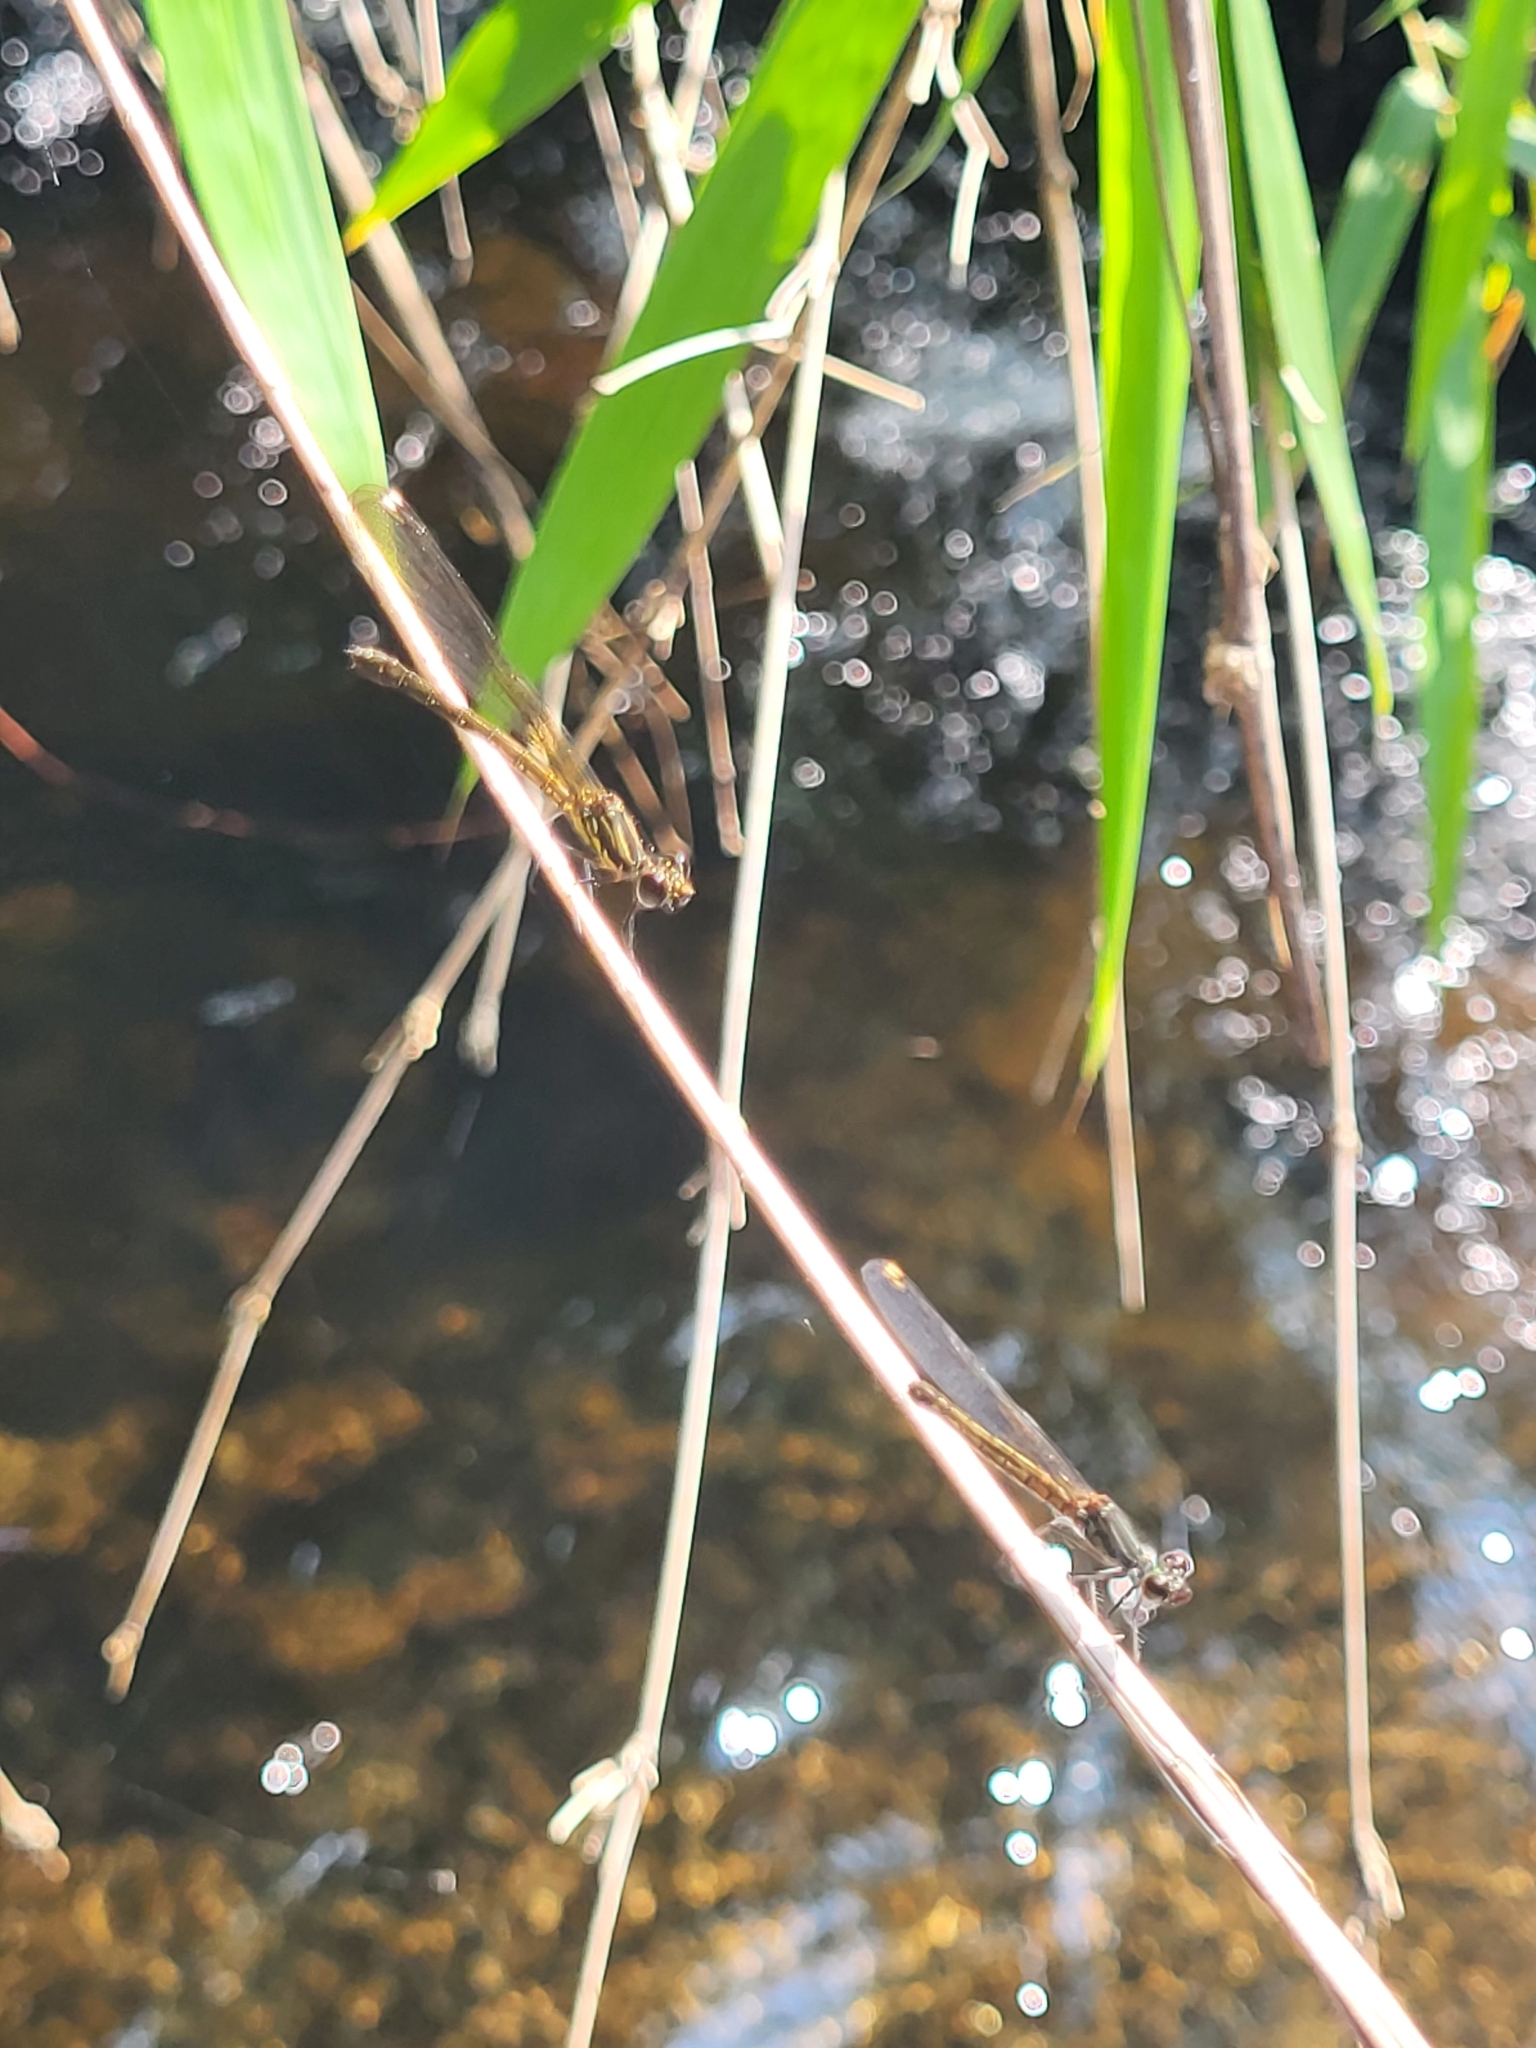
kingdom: Animalia
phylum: Arthropoda
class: Insecta
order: Odonata
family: Chlorocyphidae
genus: Libellago
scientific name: Libellago indica
